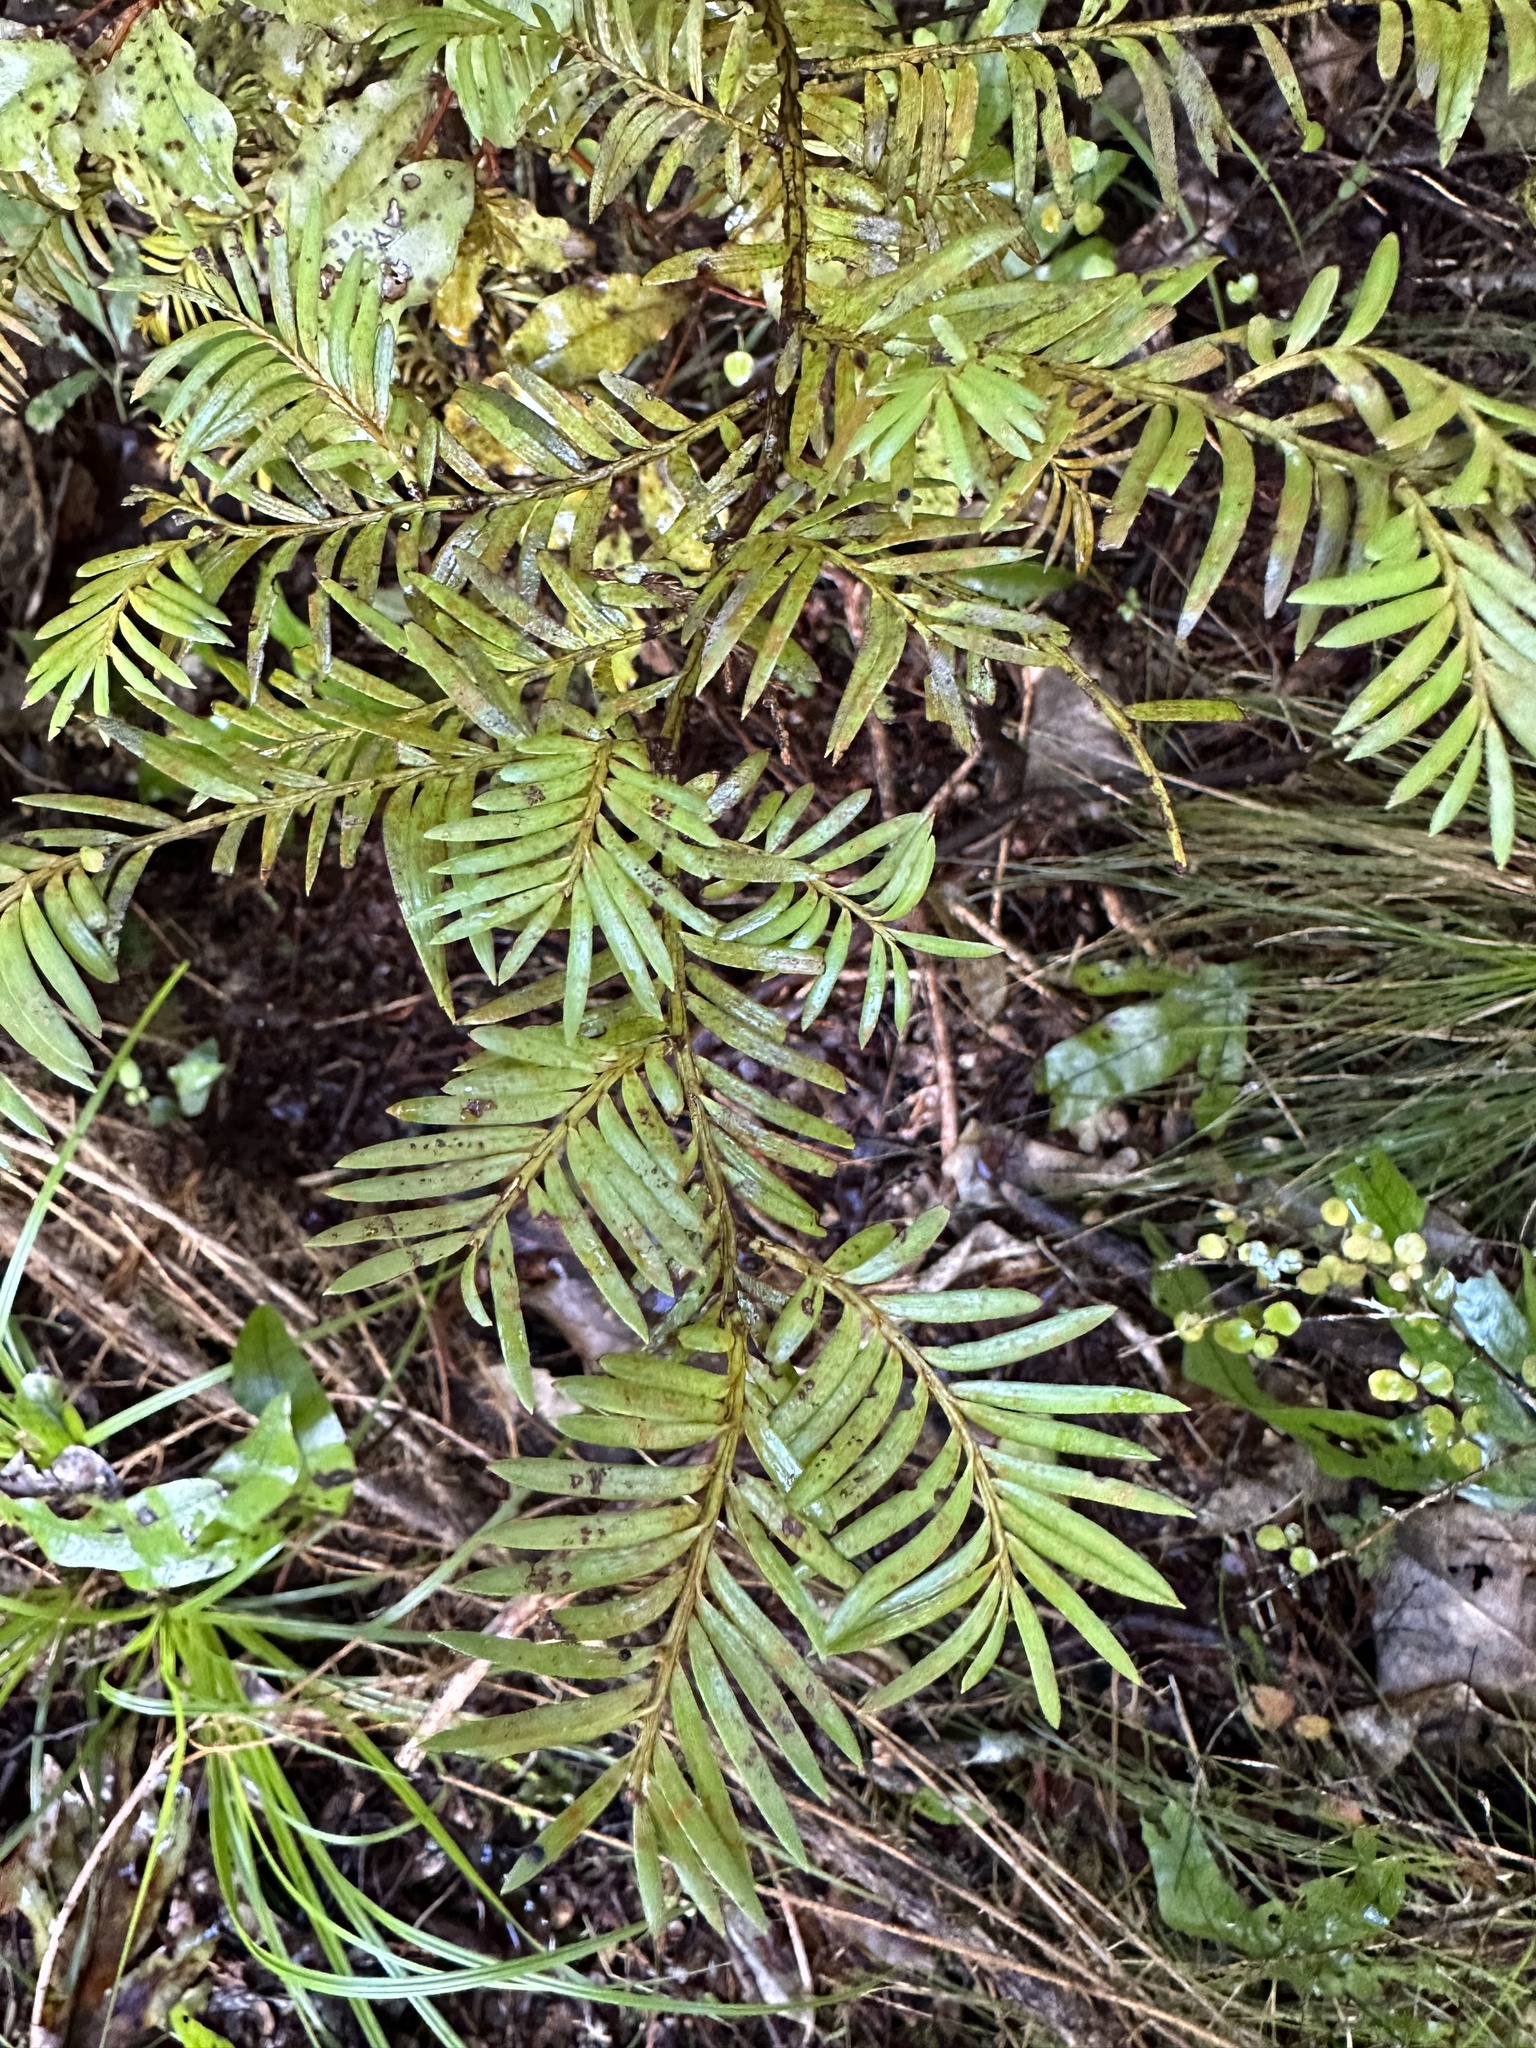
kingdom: Plantae
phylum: Tracheophyta
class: Pinopsida
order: Pinales
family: Podocarpaceae
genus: Prumnopitys
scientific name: Prumnopitys ferruginea
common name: Brown pine
